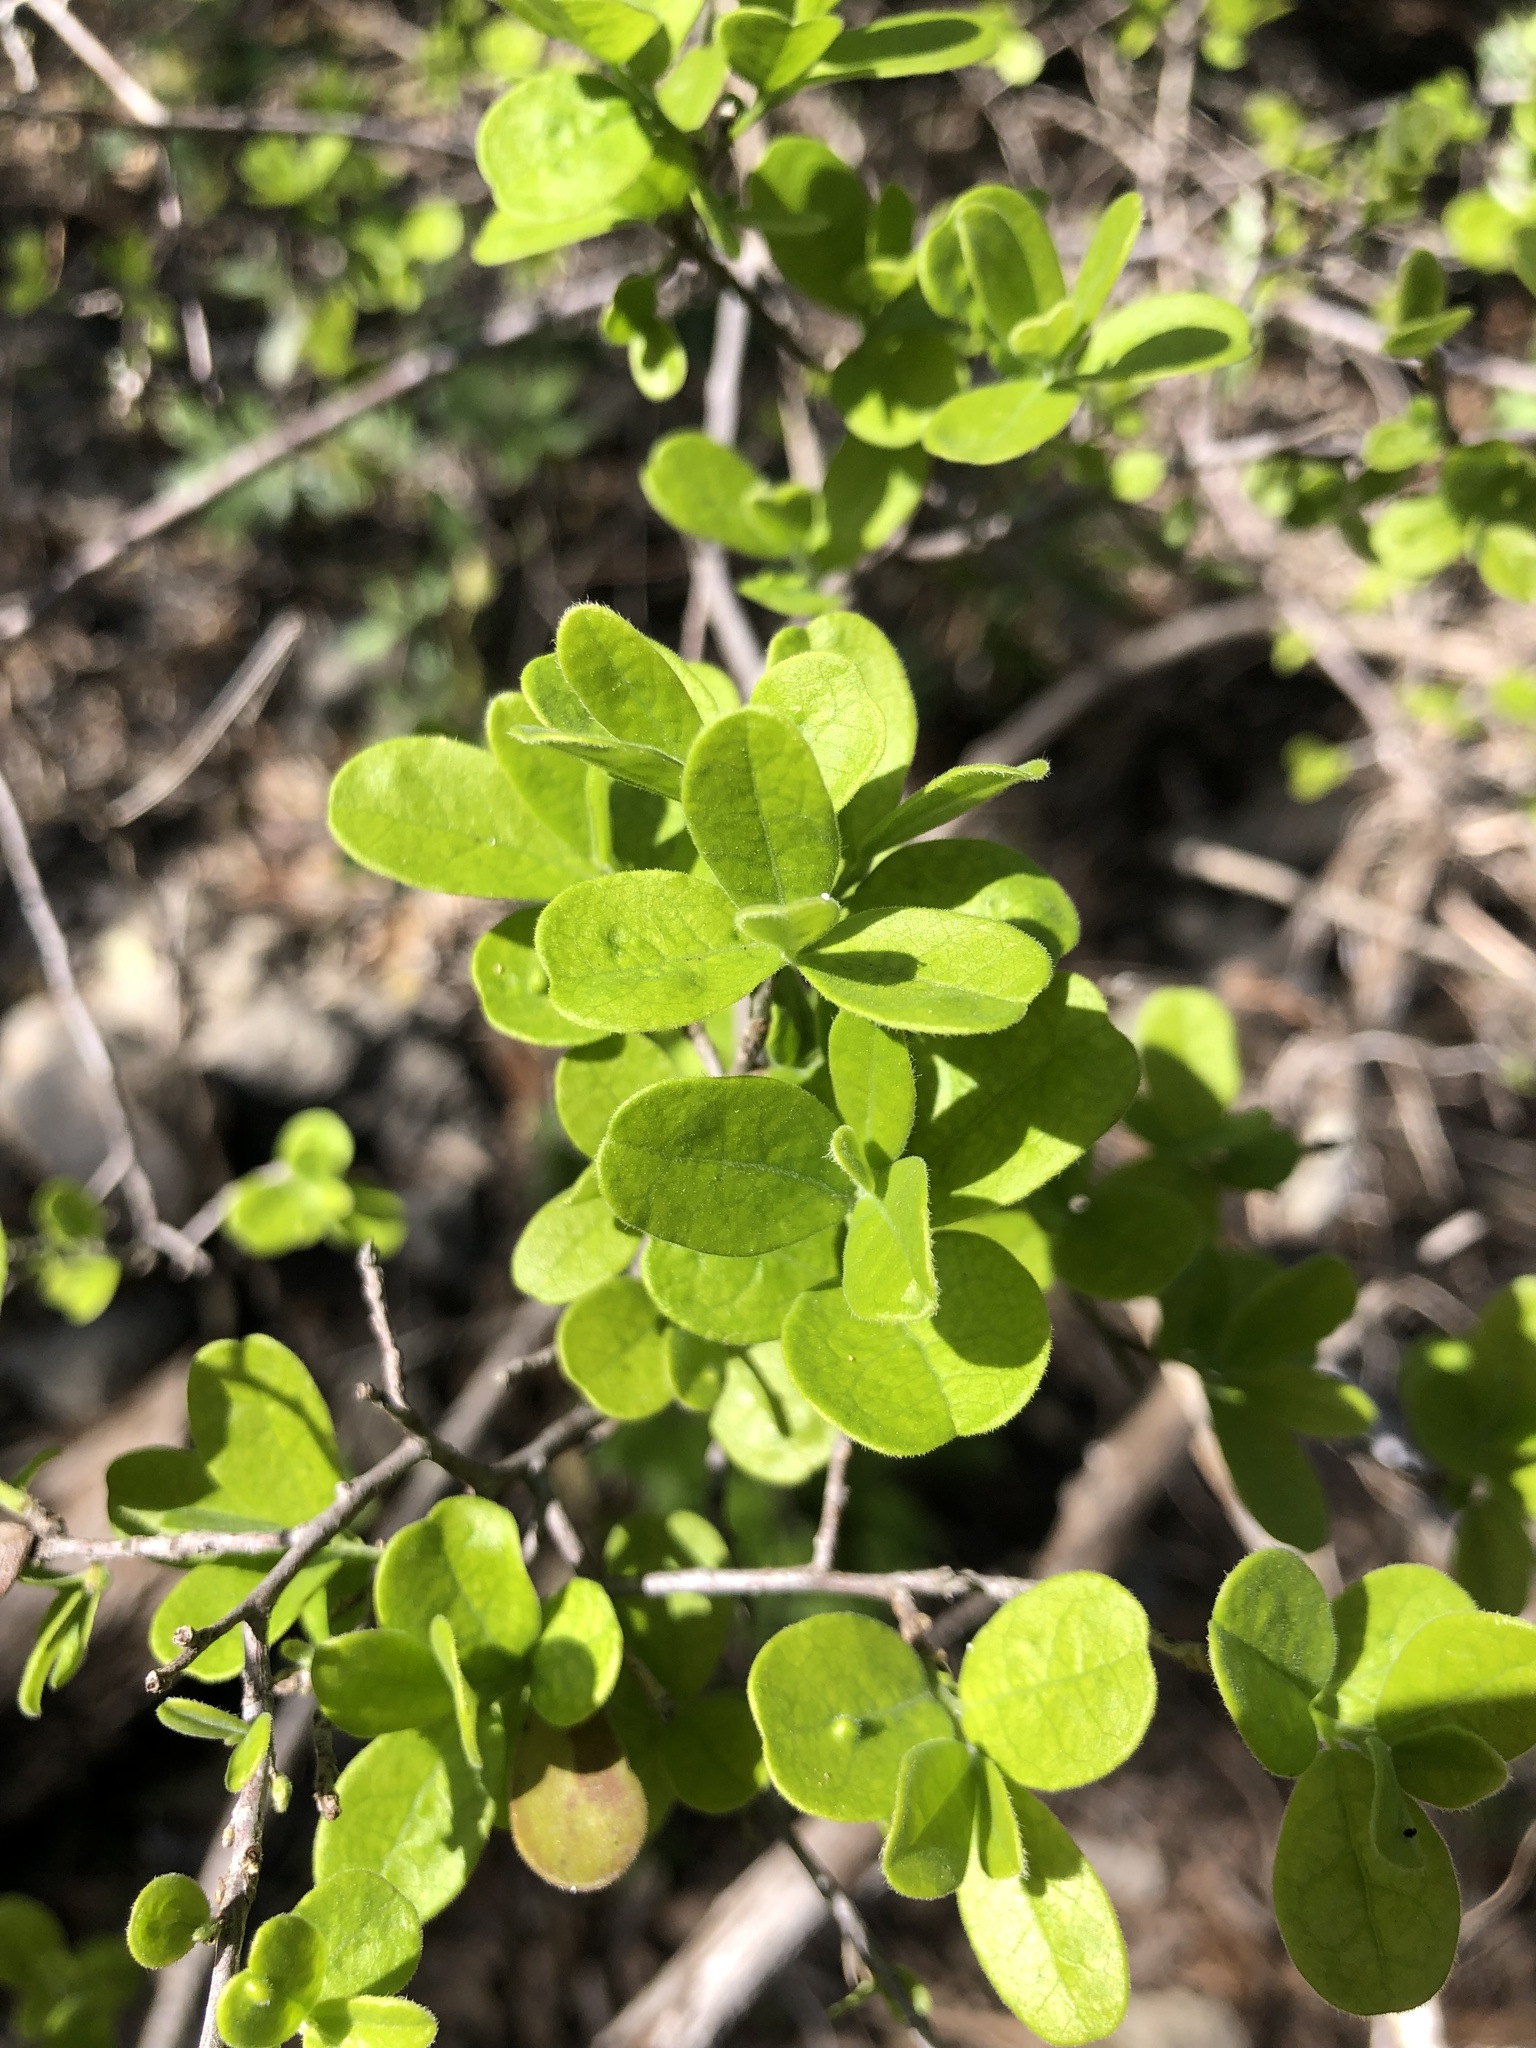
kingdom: Plantae
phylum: Tracheophyta
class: Magnoliopsida
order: Ericales
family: Ebenaceae
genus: Diospyros
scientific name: Diospyros texana
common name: Texas persimmon
